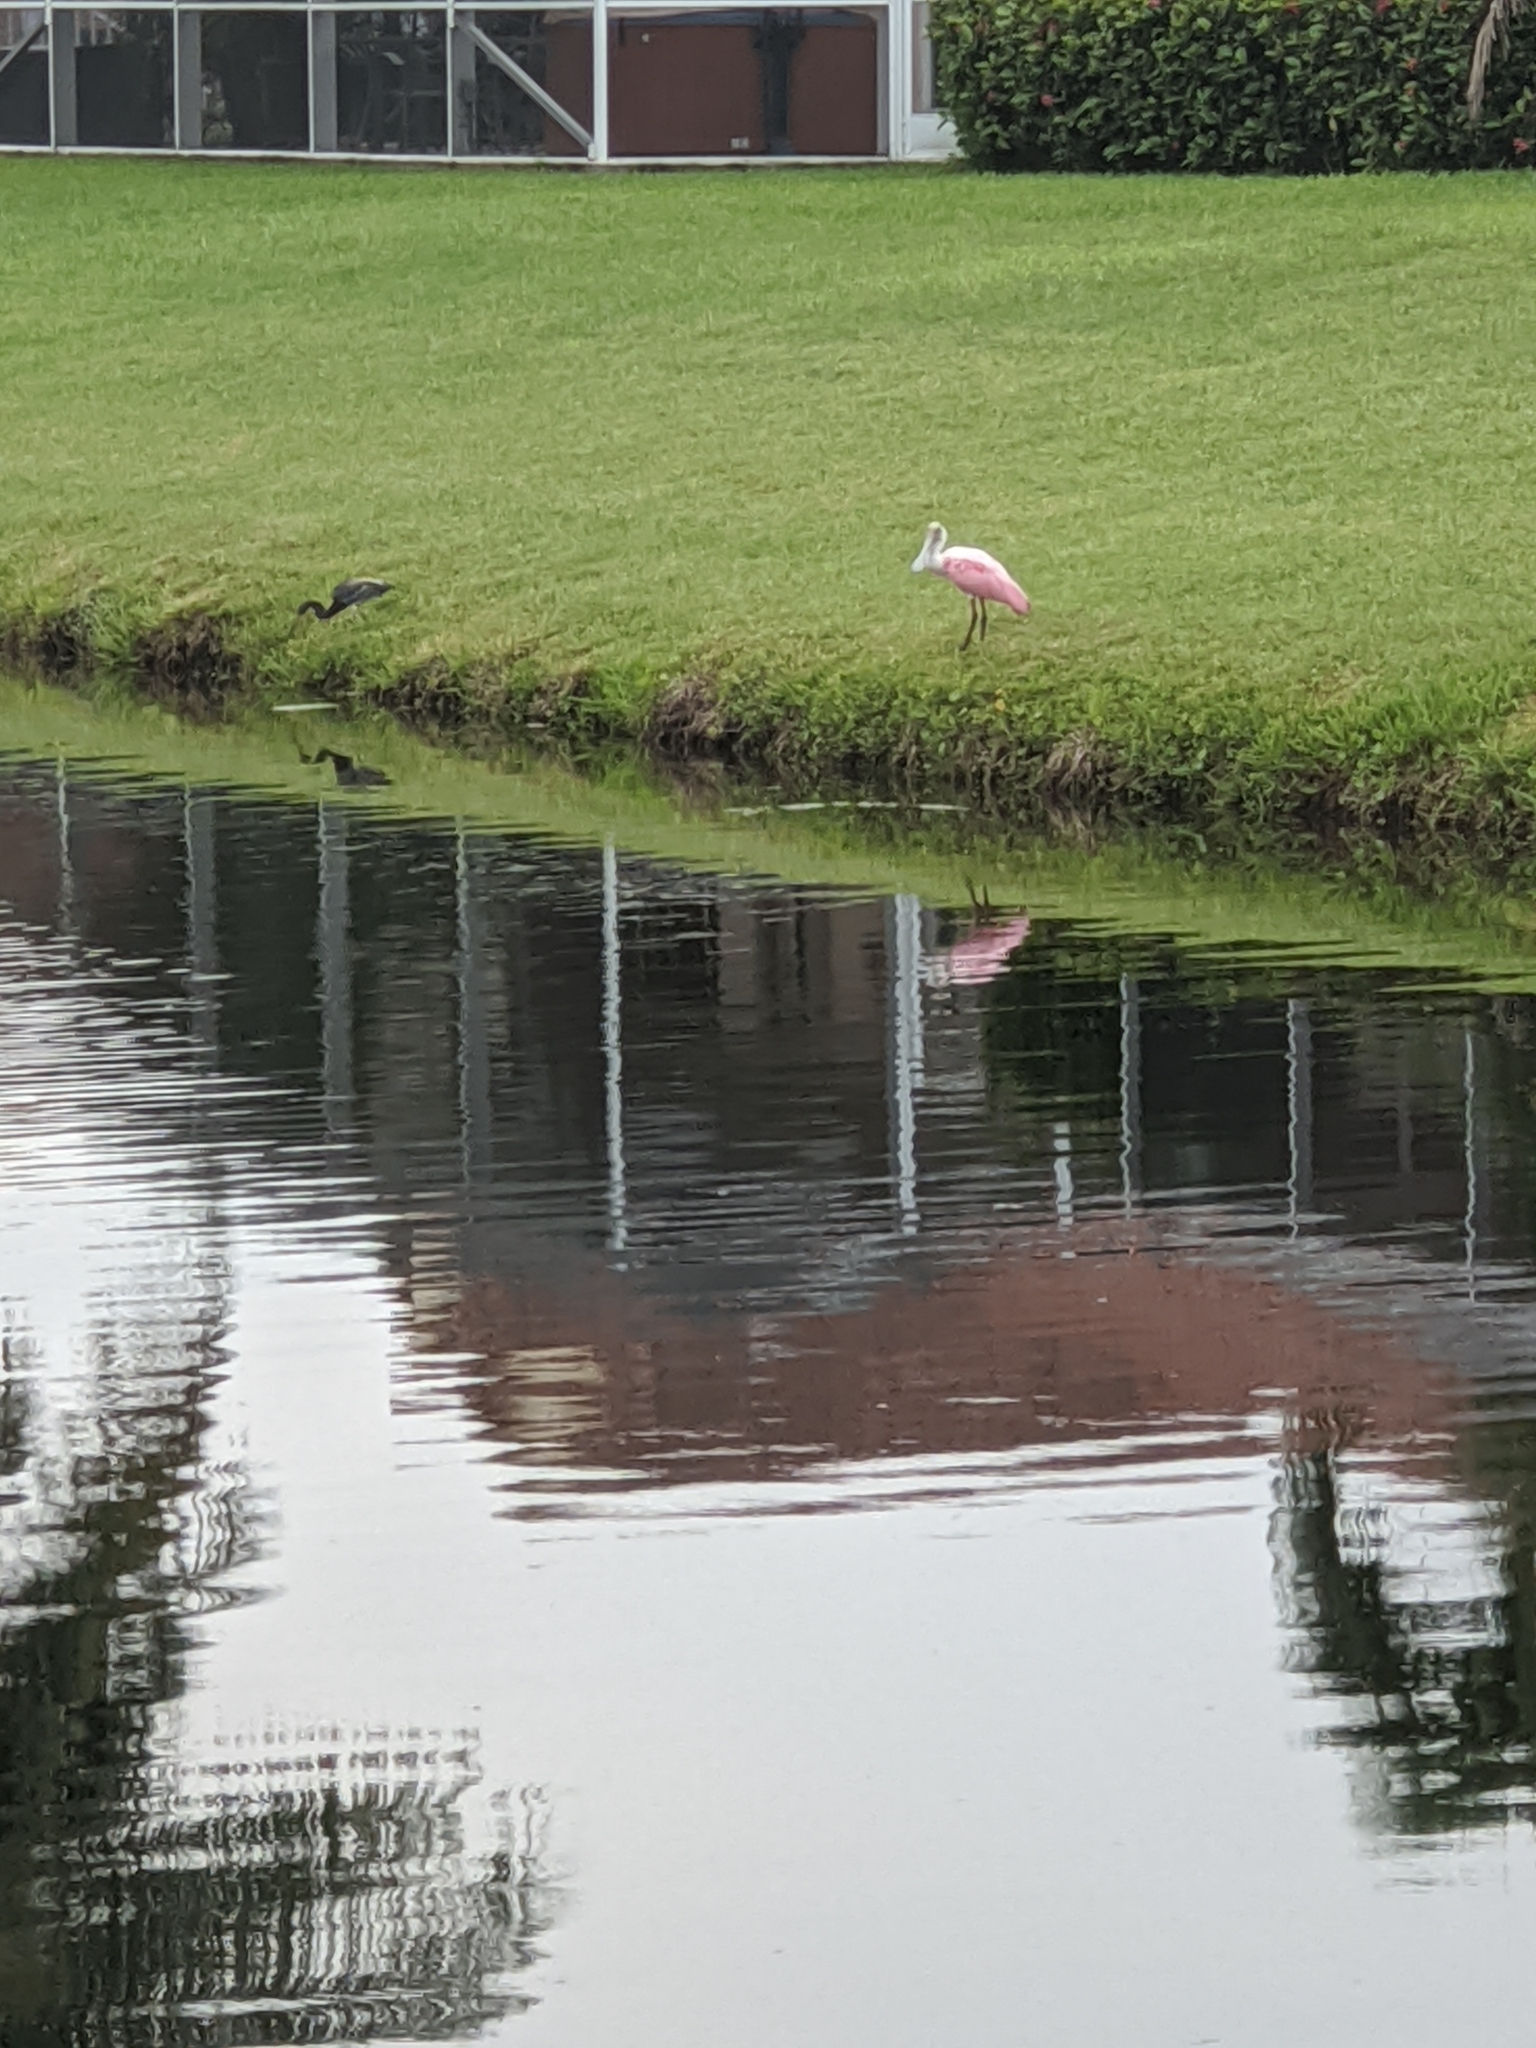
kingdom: Animalia
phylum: Chordata
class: Aves
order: Pelecaniformes
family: Threskiornithidae
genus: Platalea
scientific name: Platalea ajaja
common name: Roseate spoonbill
